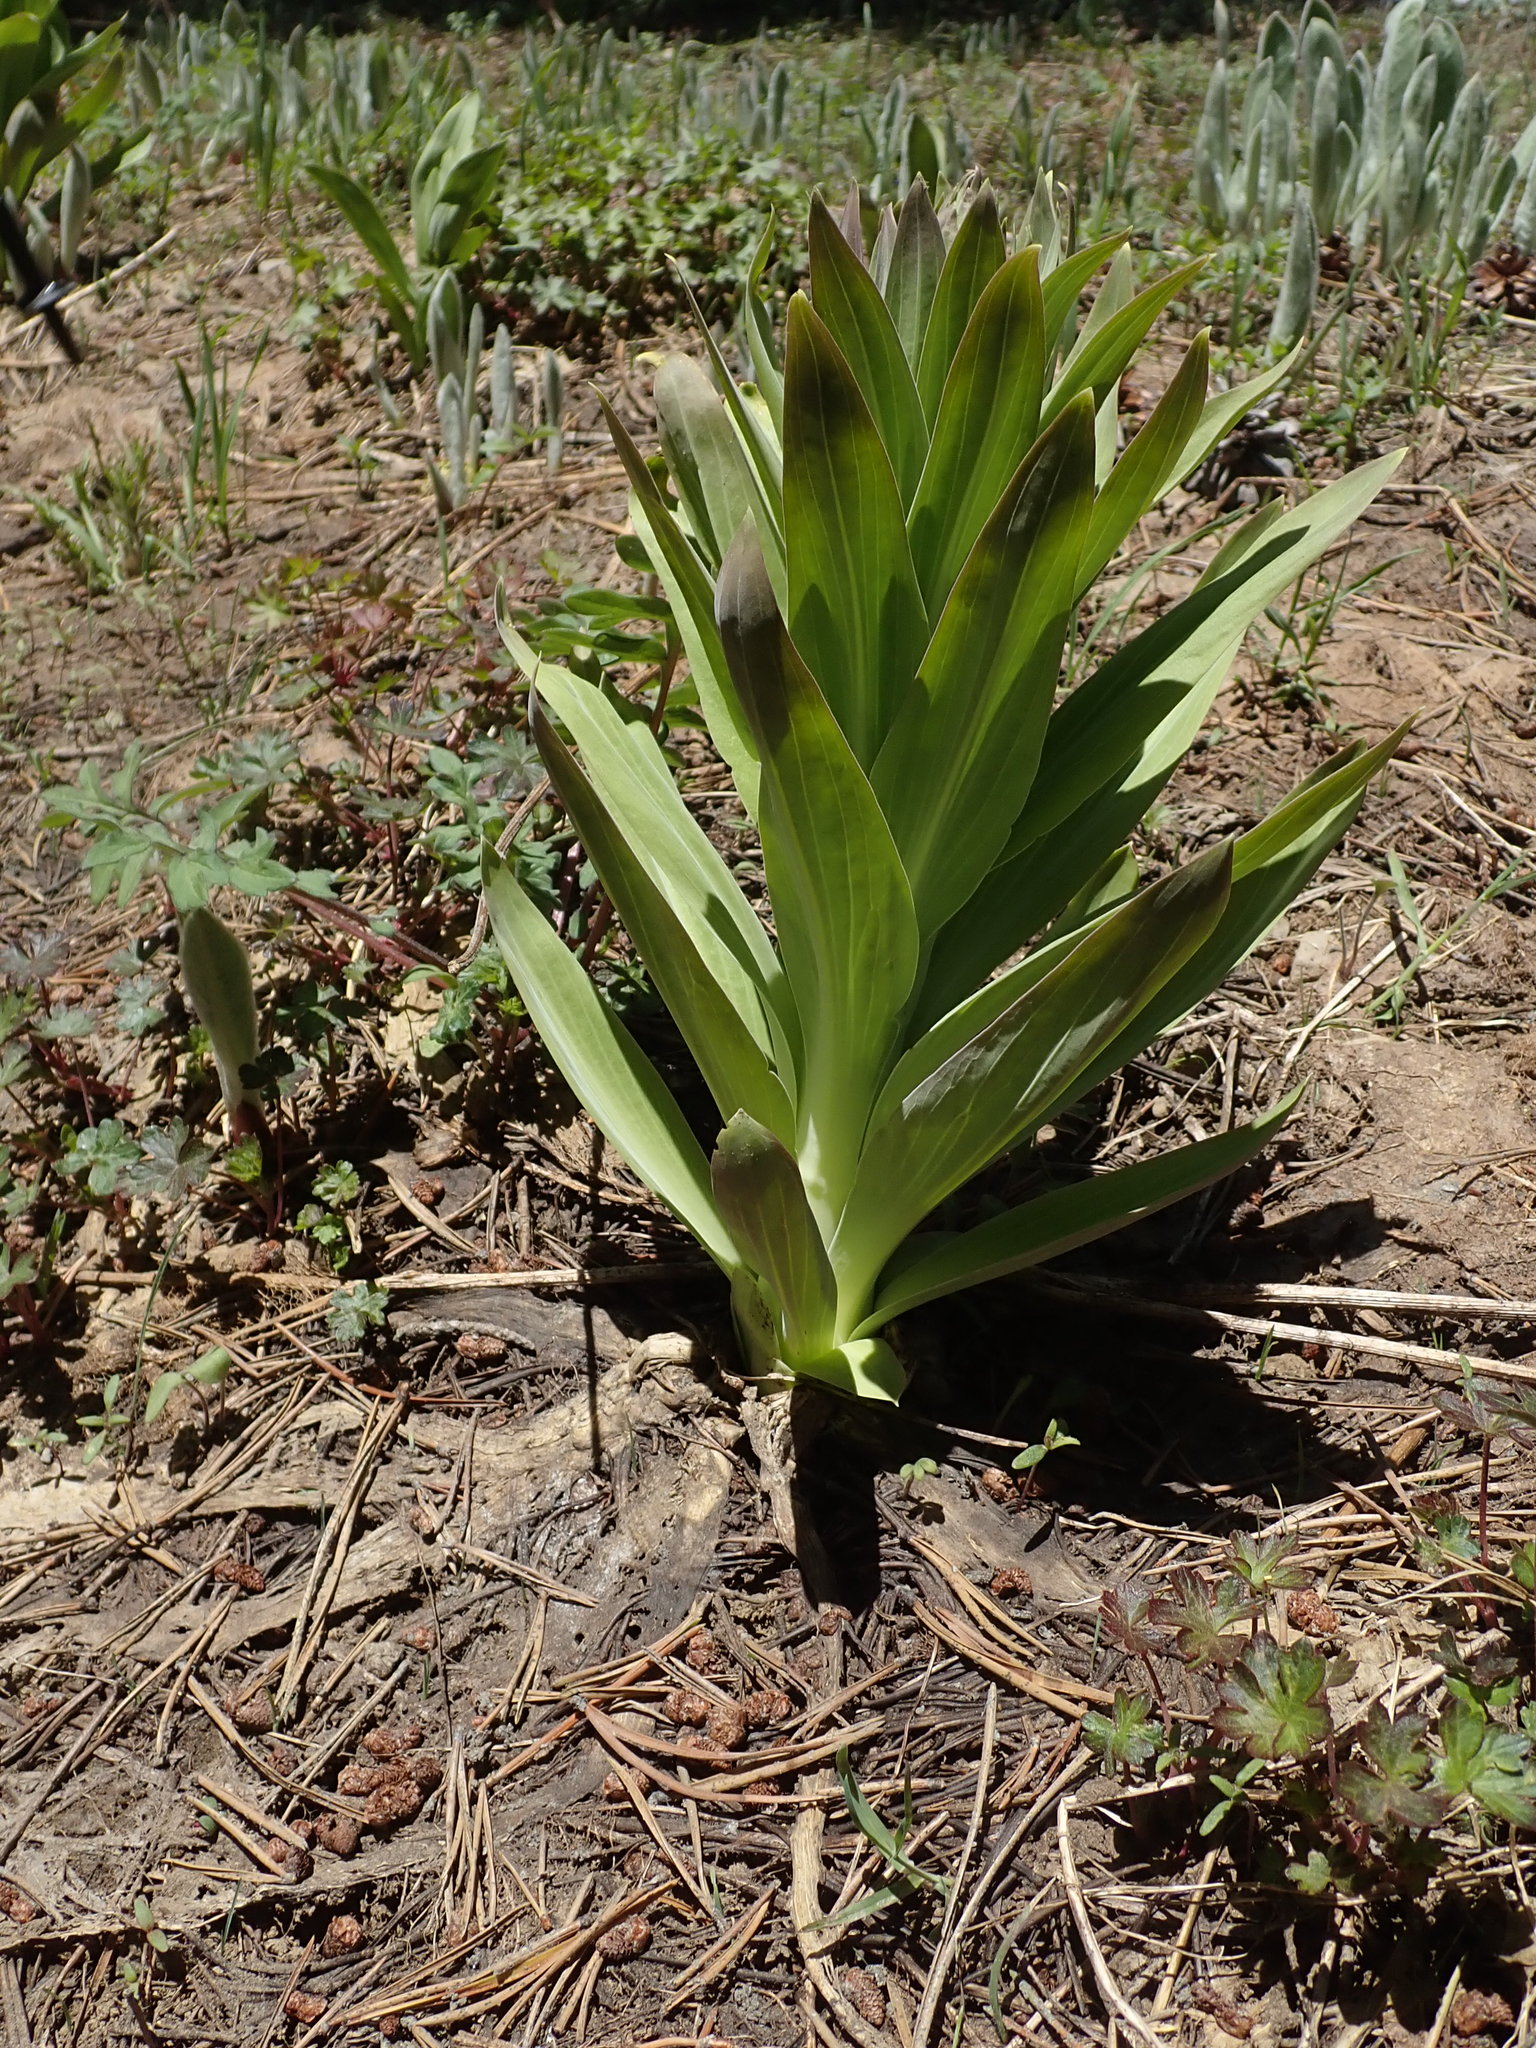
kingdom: Plantae
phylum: Tracheophyta
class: Magnoliopsida
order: Gentianales
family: Gentianaceae
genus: Frasera
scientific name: Frasera speciosa
